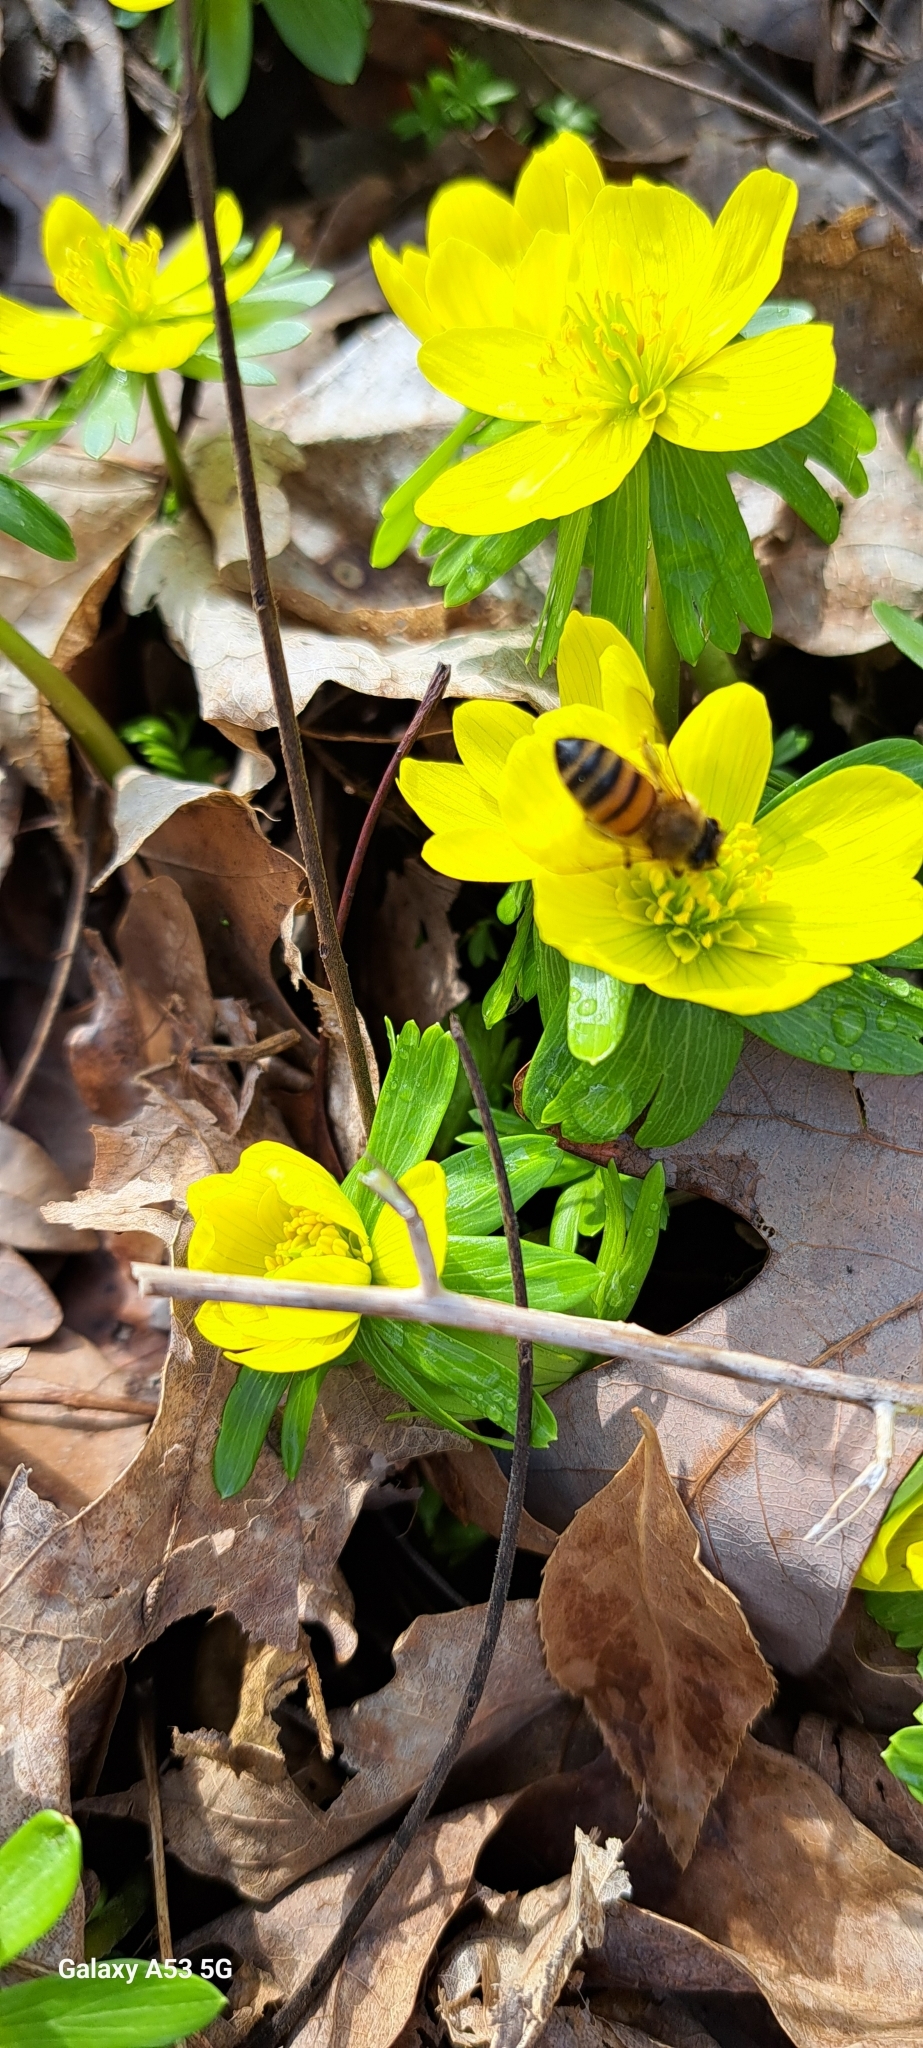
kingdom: Plantae
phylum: Tracheophyta
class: Magnoliopsida
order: Ranunculales
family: Ranunculaceae
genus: Eranthis
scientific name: Eranthis hyemalis
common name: Winter aconite
